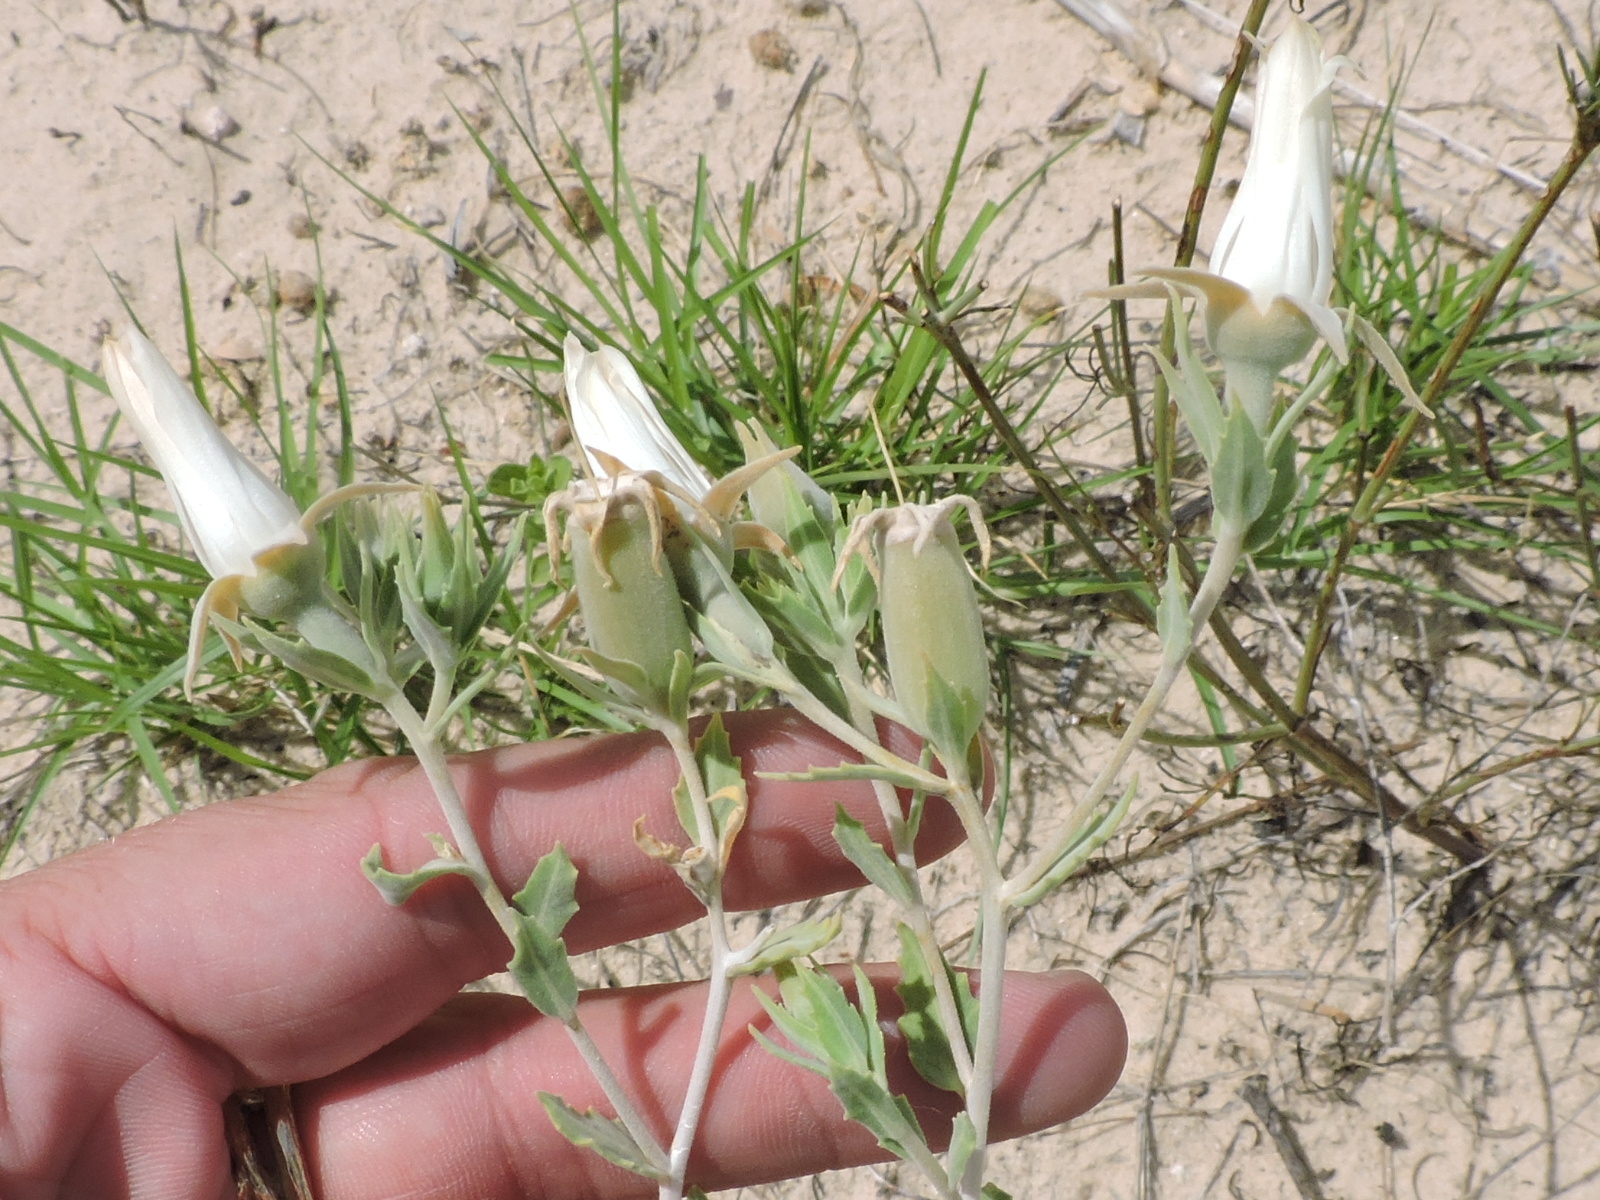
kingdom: Plantae
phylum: Tracheophyta
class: Magnoliopsida
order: Cornales
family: Loasaceae
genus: Mentzelia
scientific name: Mentzelia strictissima
